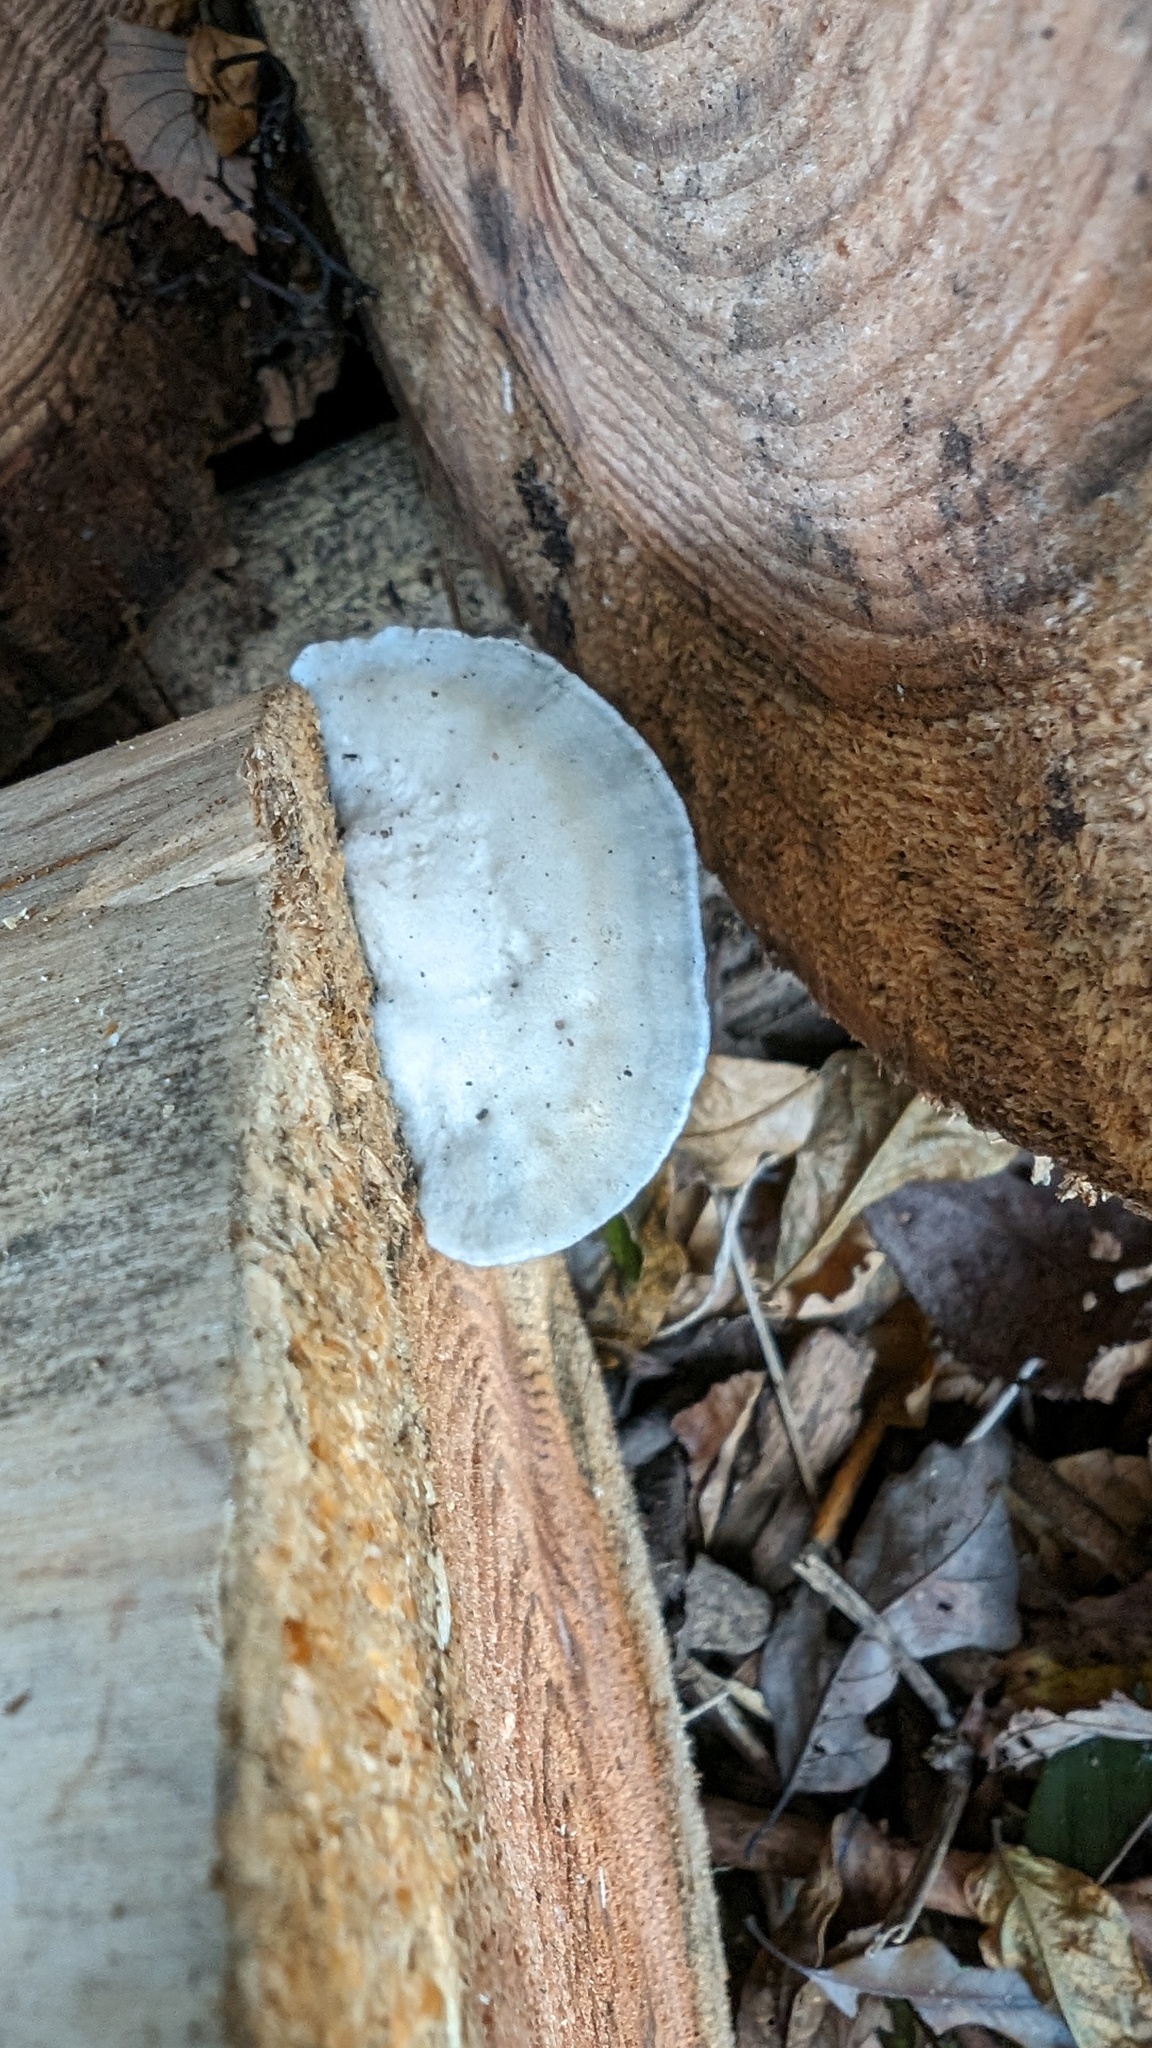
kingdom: Fungi
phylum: Basidiomycota
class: Agaricomycetes
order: Polyporales
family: Polyporaceae
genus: Cyanosporus
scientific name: Cyanosporus caesius
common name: Blue cheese polypore
